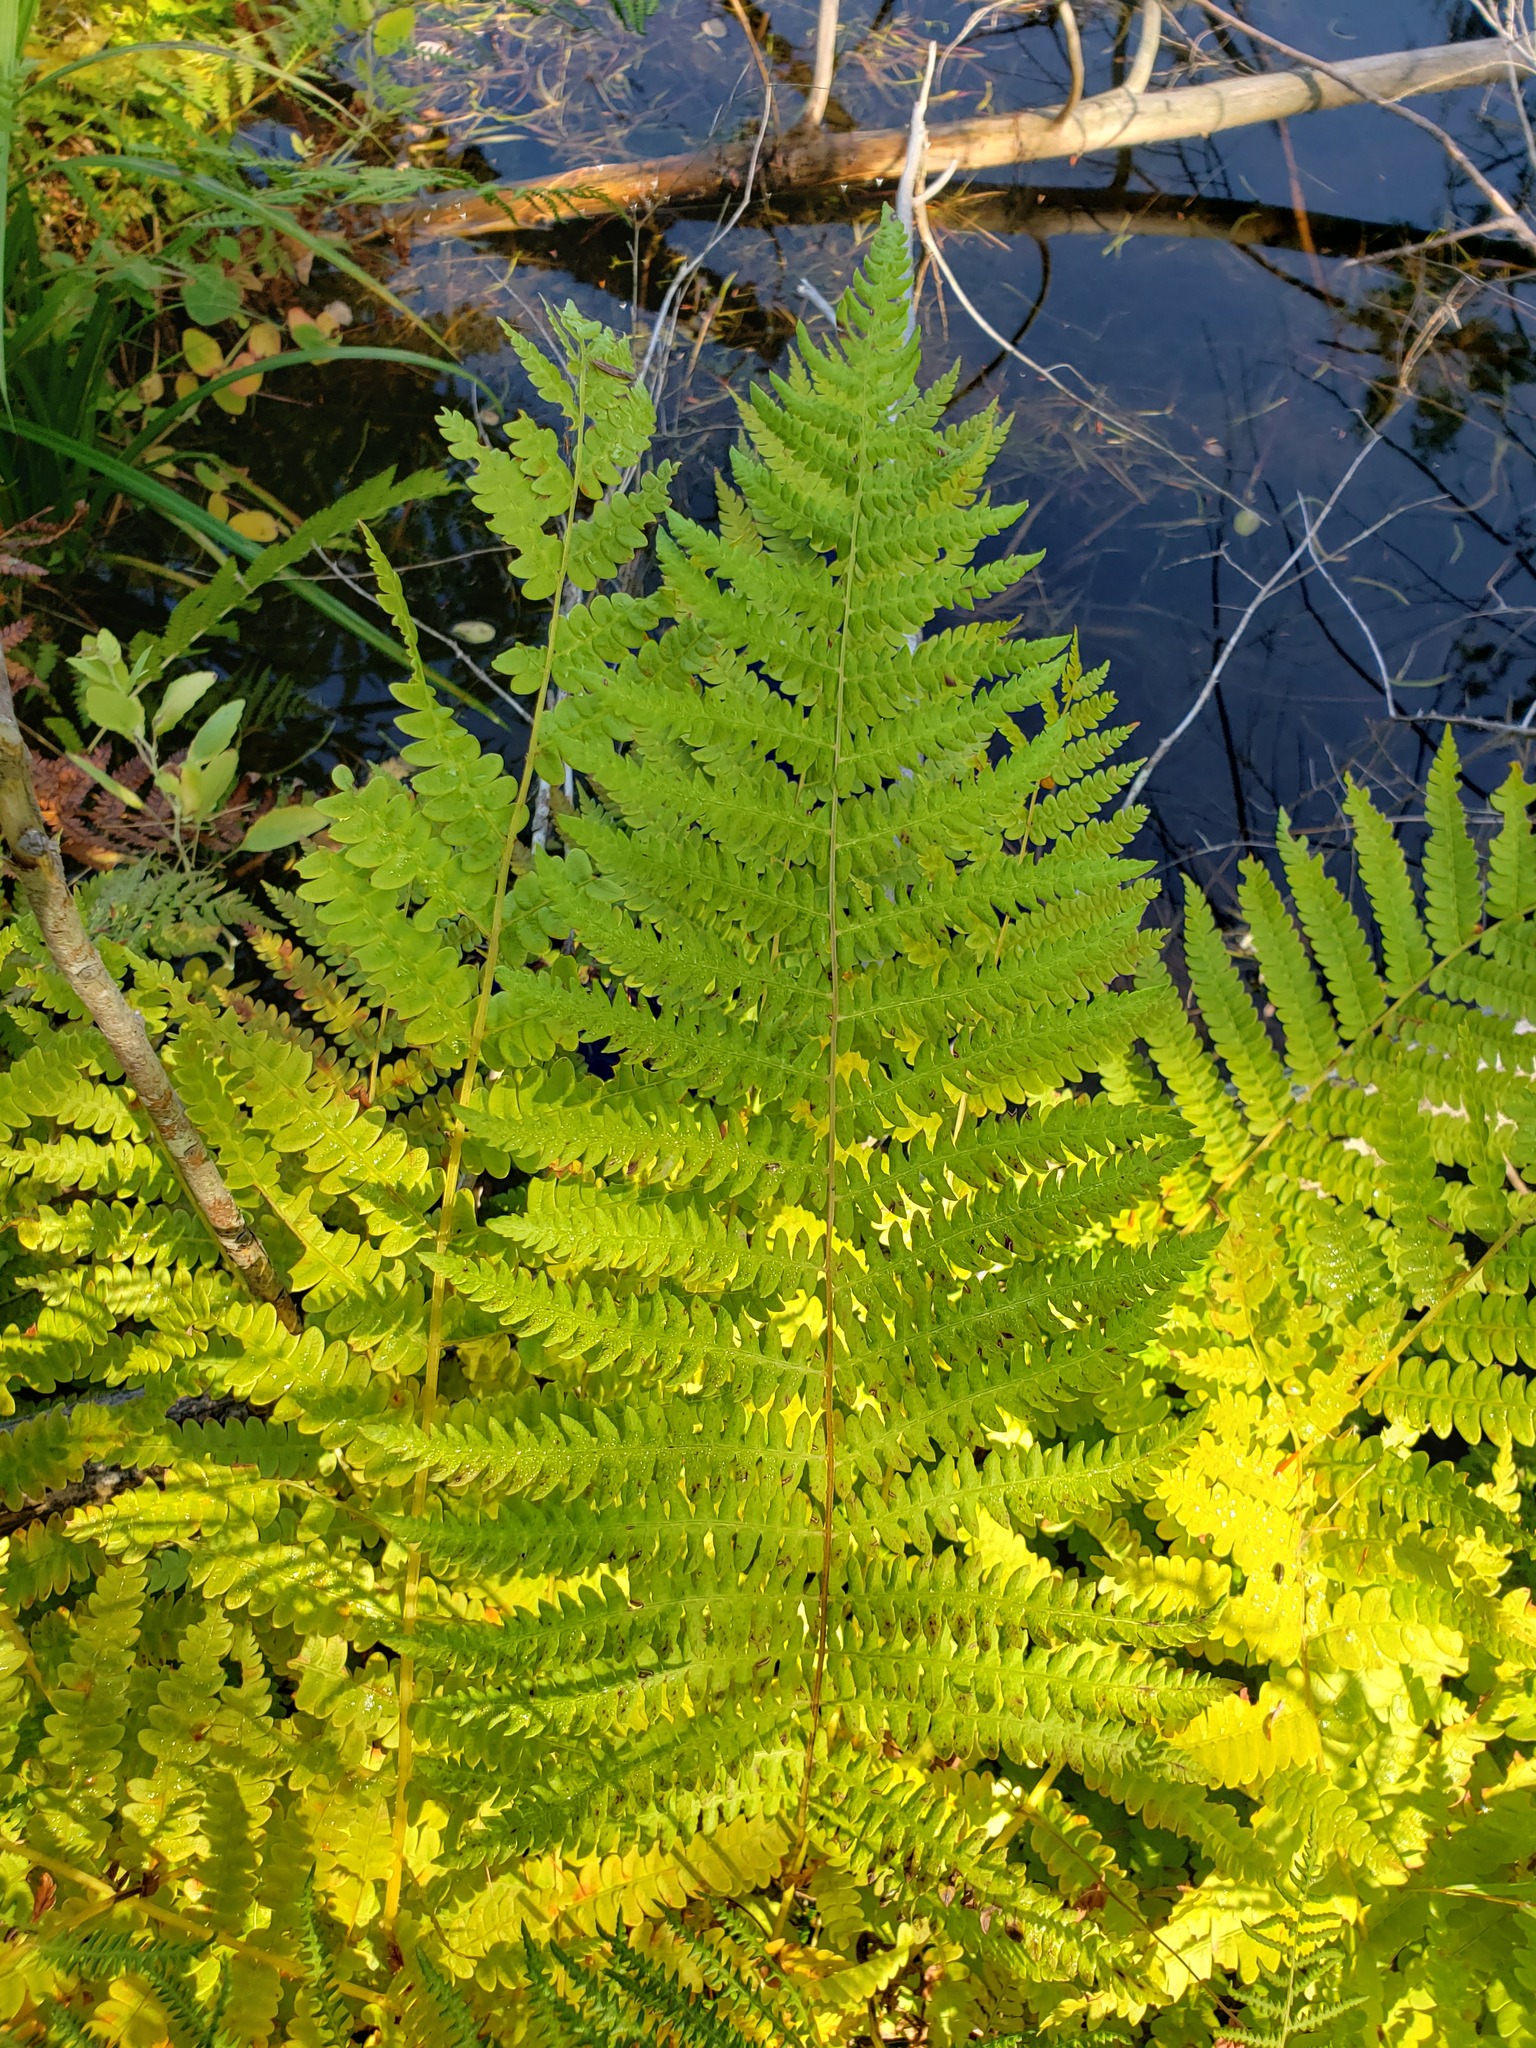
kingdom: Plantae
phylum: Tracheophyta
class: Polypodiopsida
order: Osmundales
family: Osmundaceae
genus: Osmundastrum
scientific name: Osmundastrum cinnamomeum
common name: Cinnamon fern
